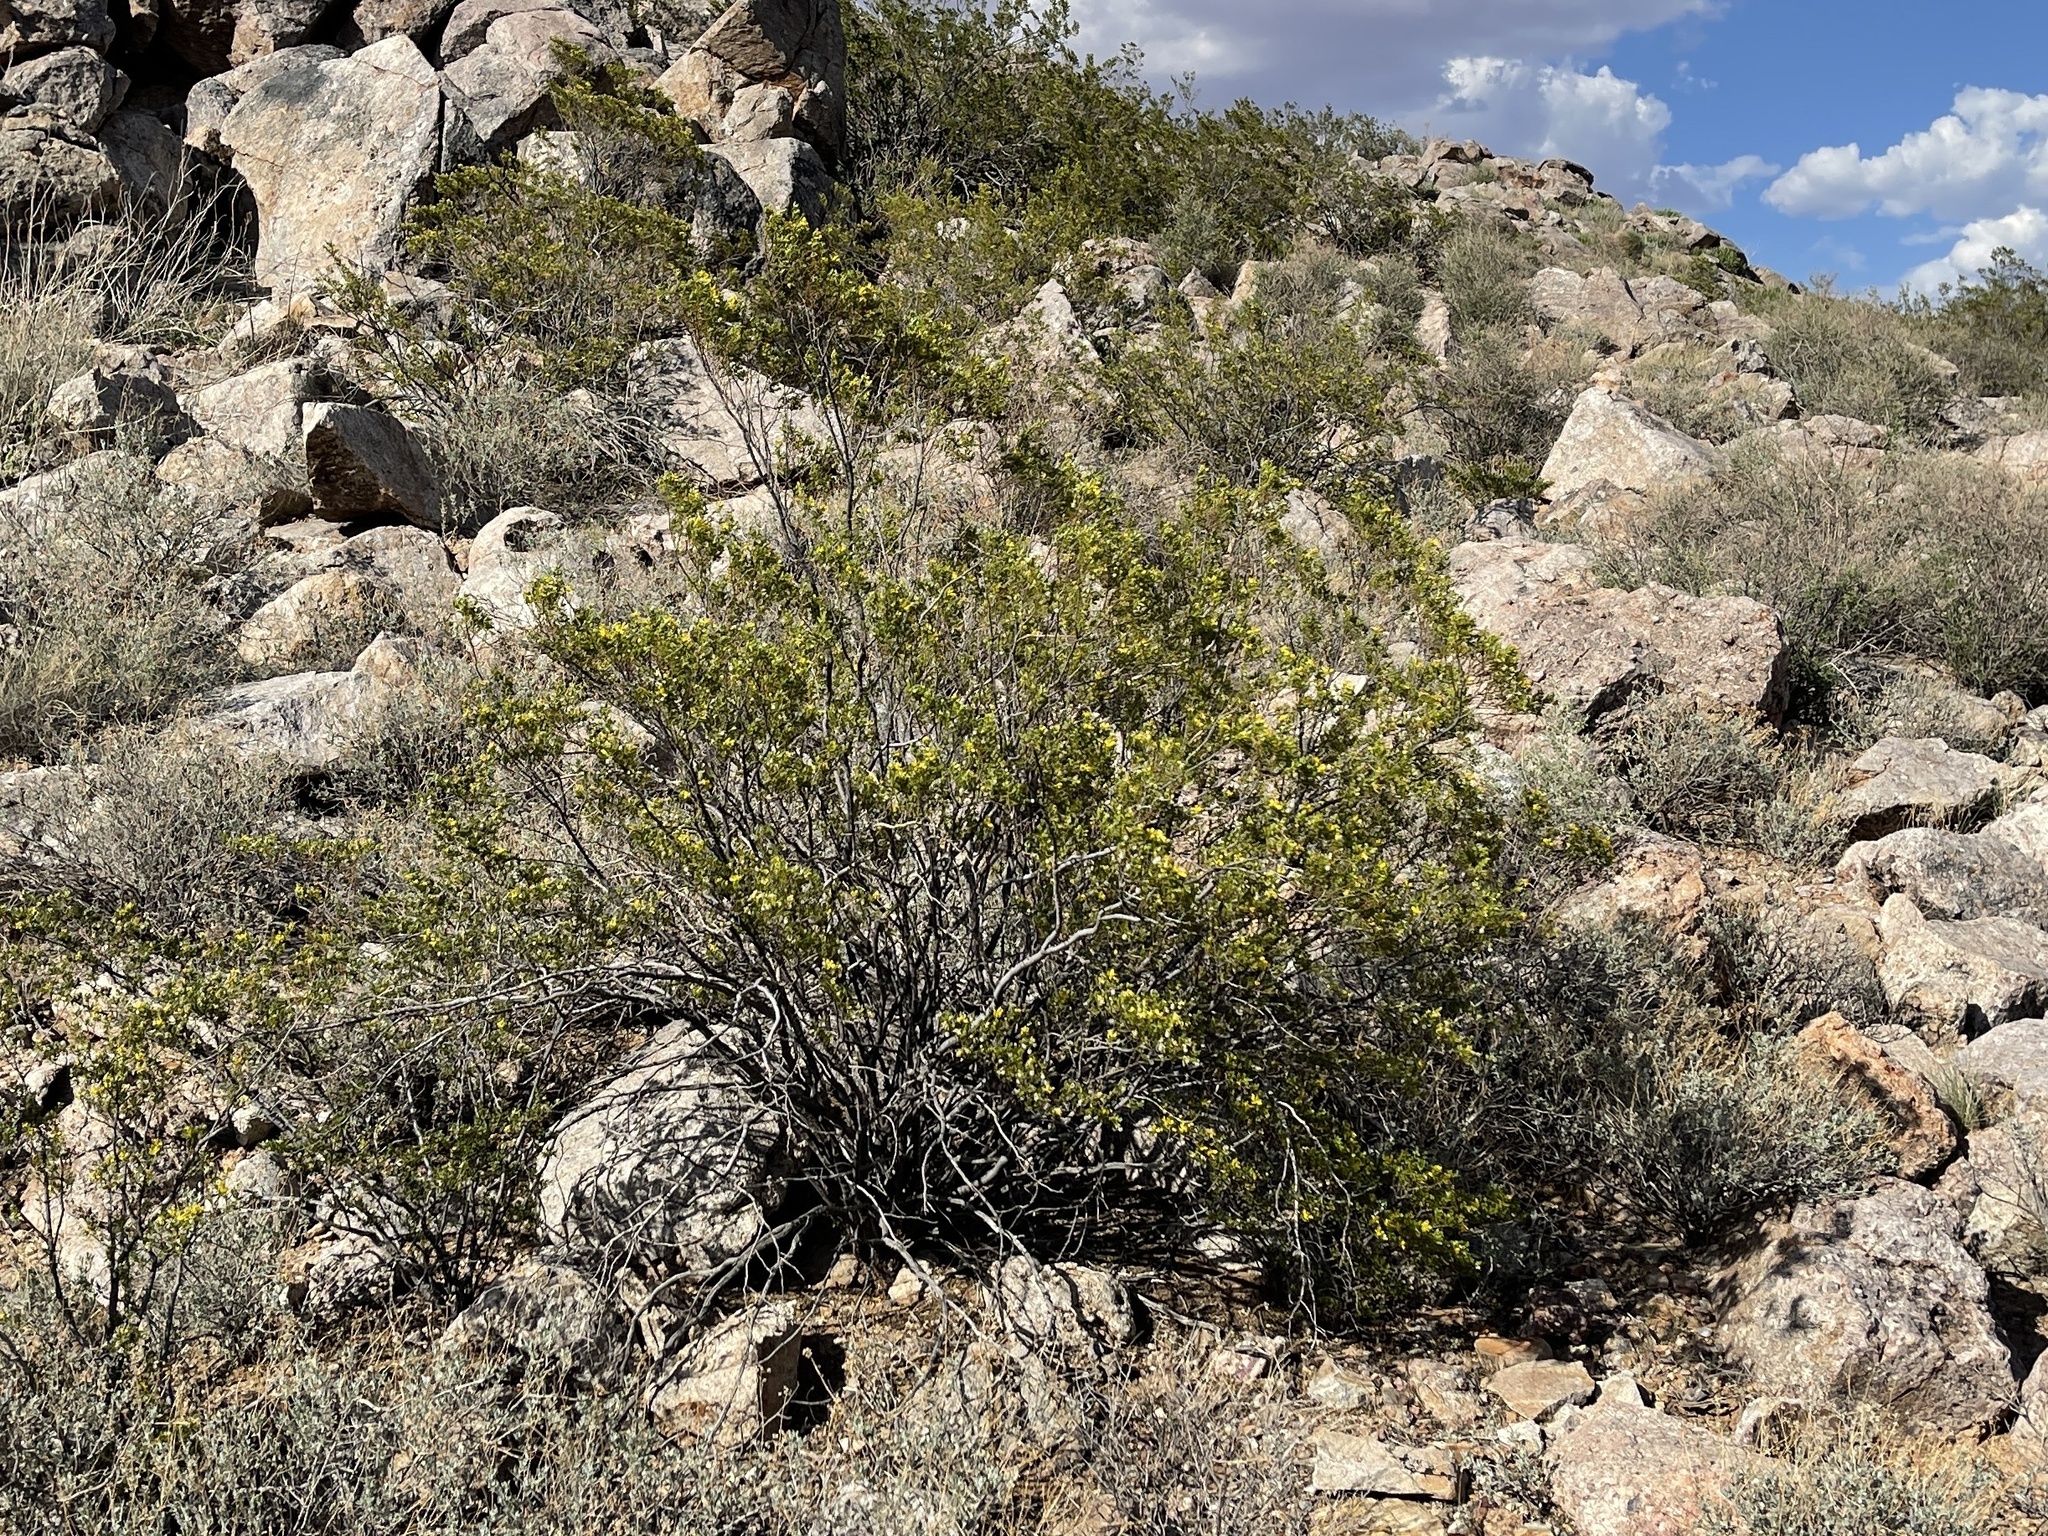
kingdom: Plantae
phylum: Tracheophyta
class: Magnoliopsida
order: Zygophyllales
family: Zygophyllaceae
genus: Larrea
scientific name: Larrea tridentata
